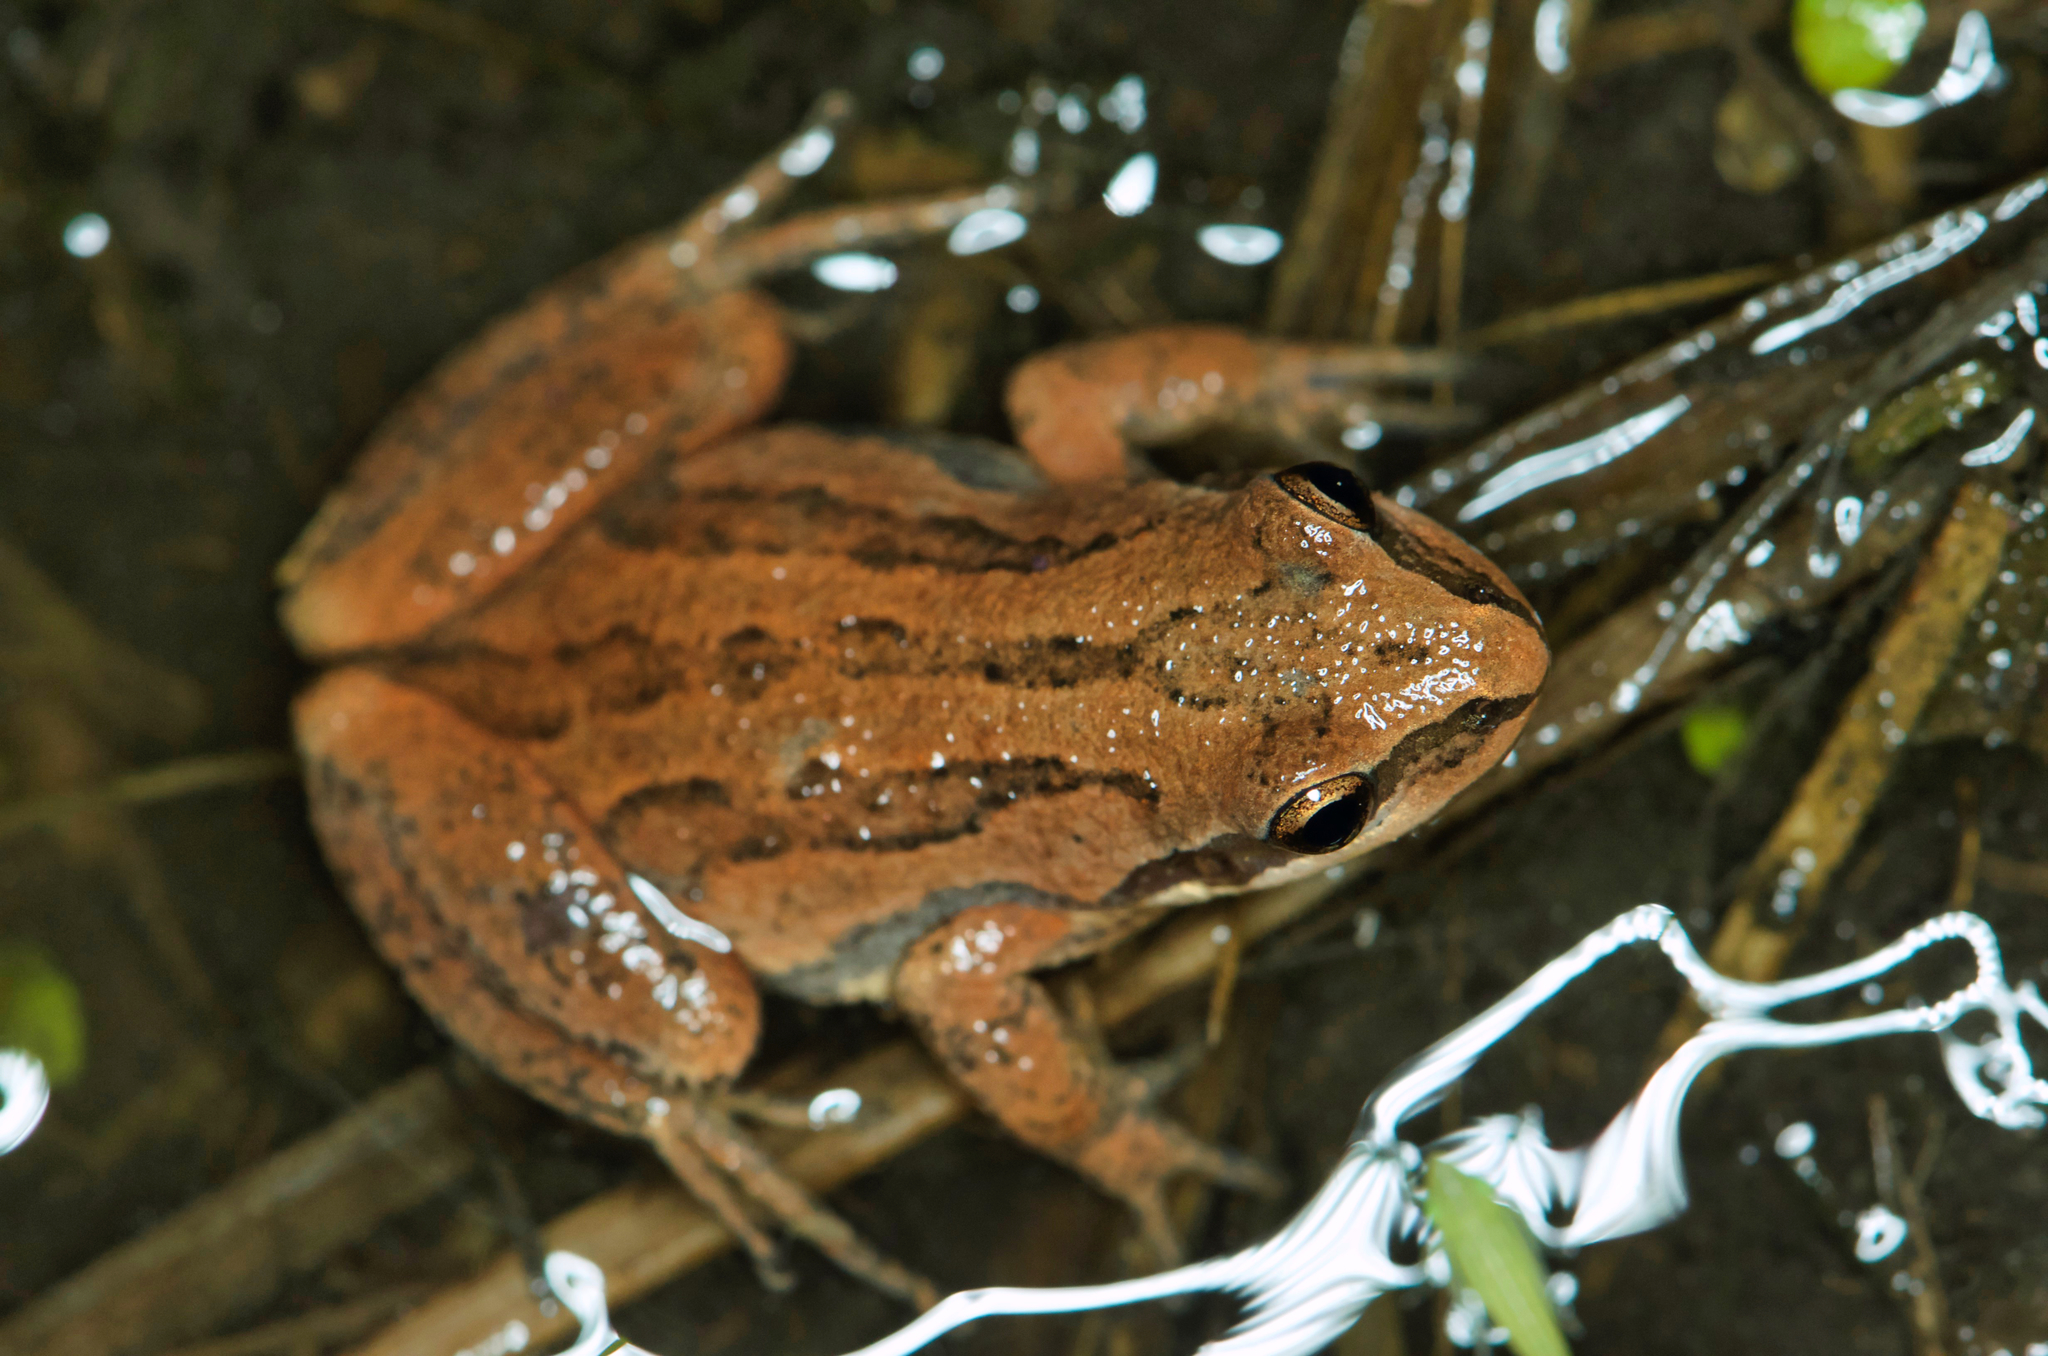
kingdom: Animalia
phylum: Chordata
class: Amphibia
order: Anura
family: Hylidae
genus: Pseudacris
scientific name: Pseudacris kalmi
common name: New jersey chorus frog
